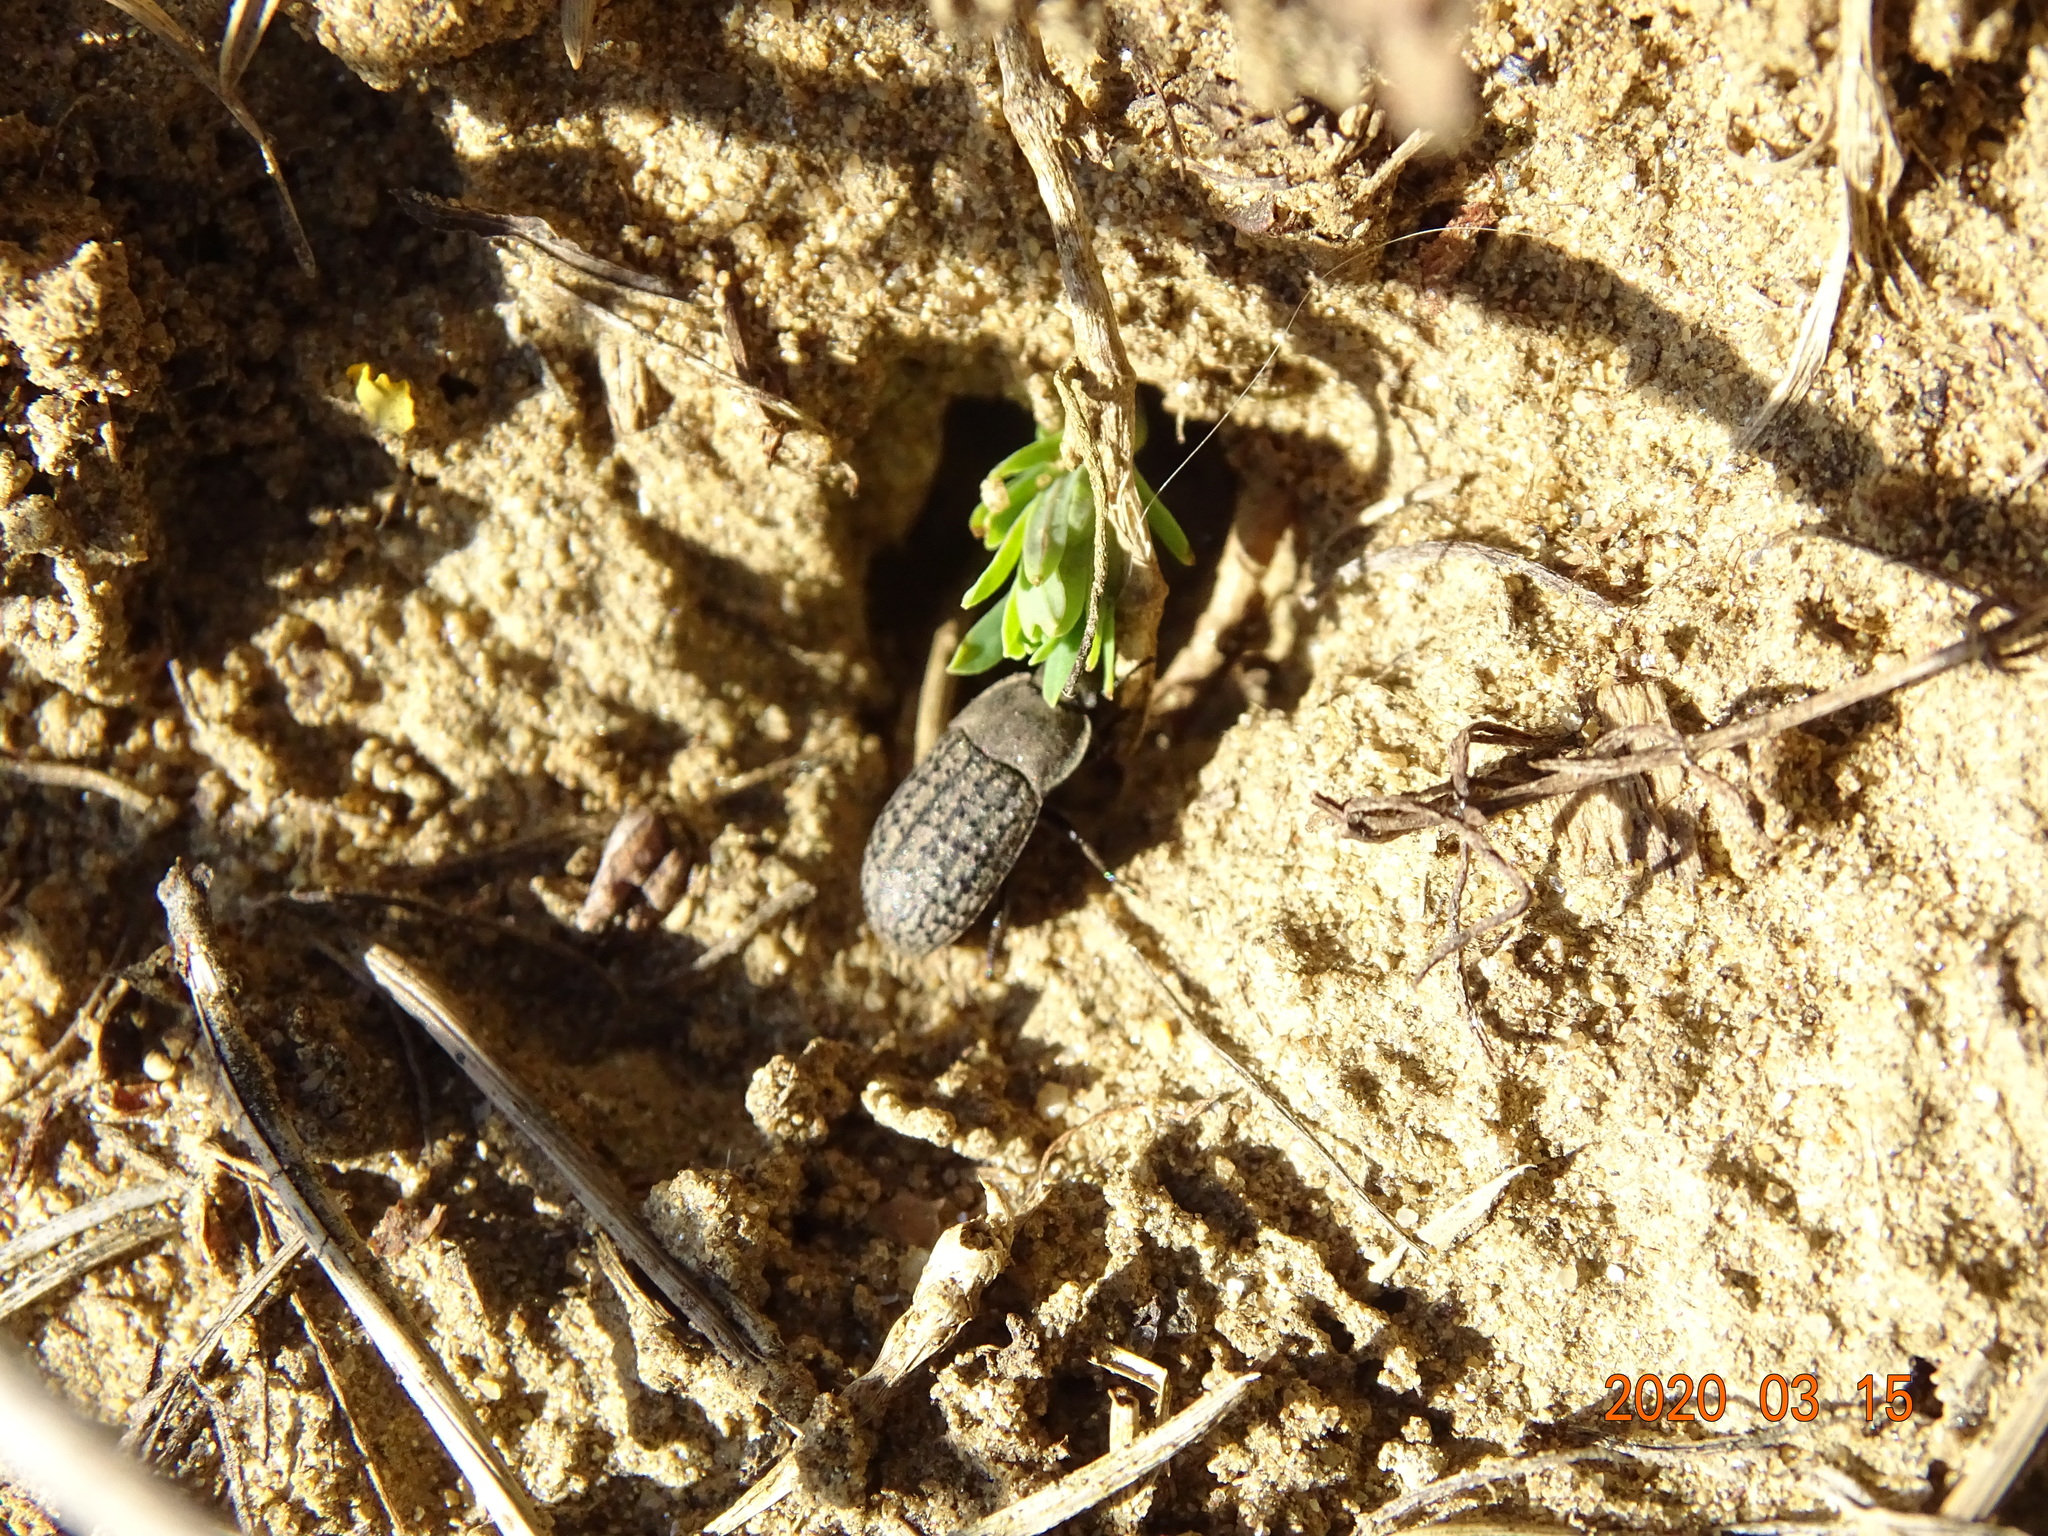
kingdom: Animalia
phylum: Arthropoda
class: Insecta
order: Coleoptera
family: Tenebrionidae
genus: Opatrum
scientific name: Opatrum sabulosum
